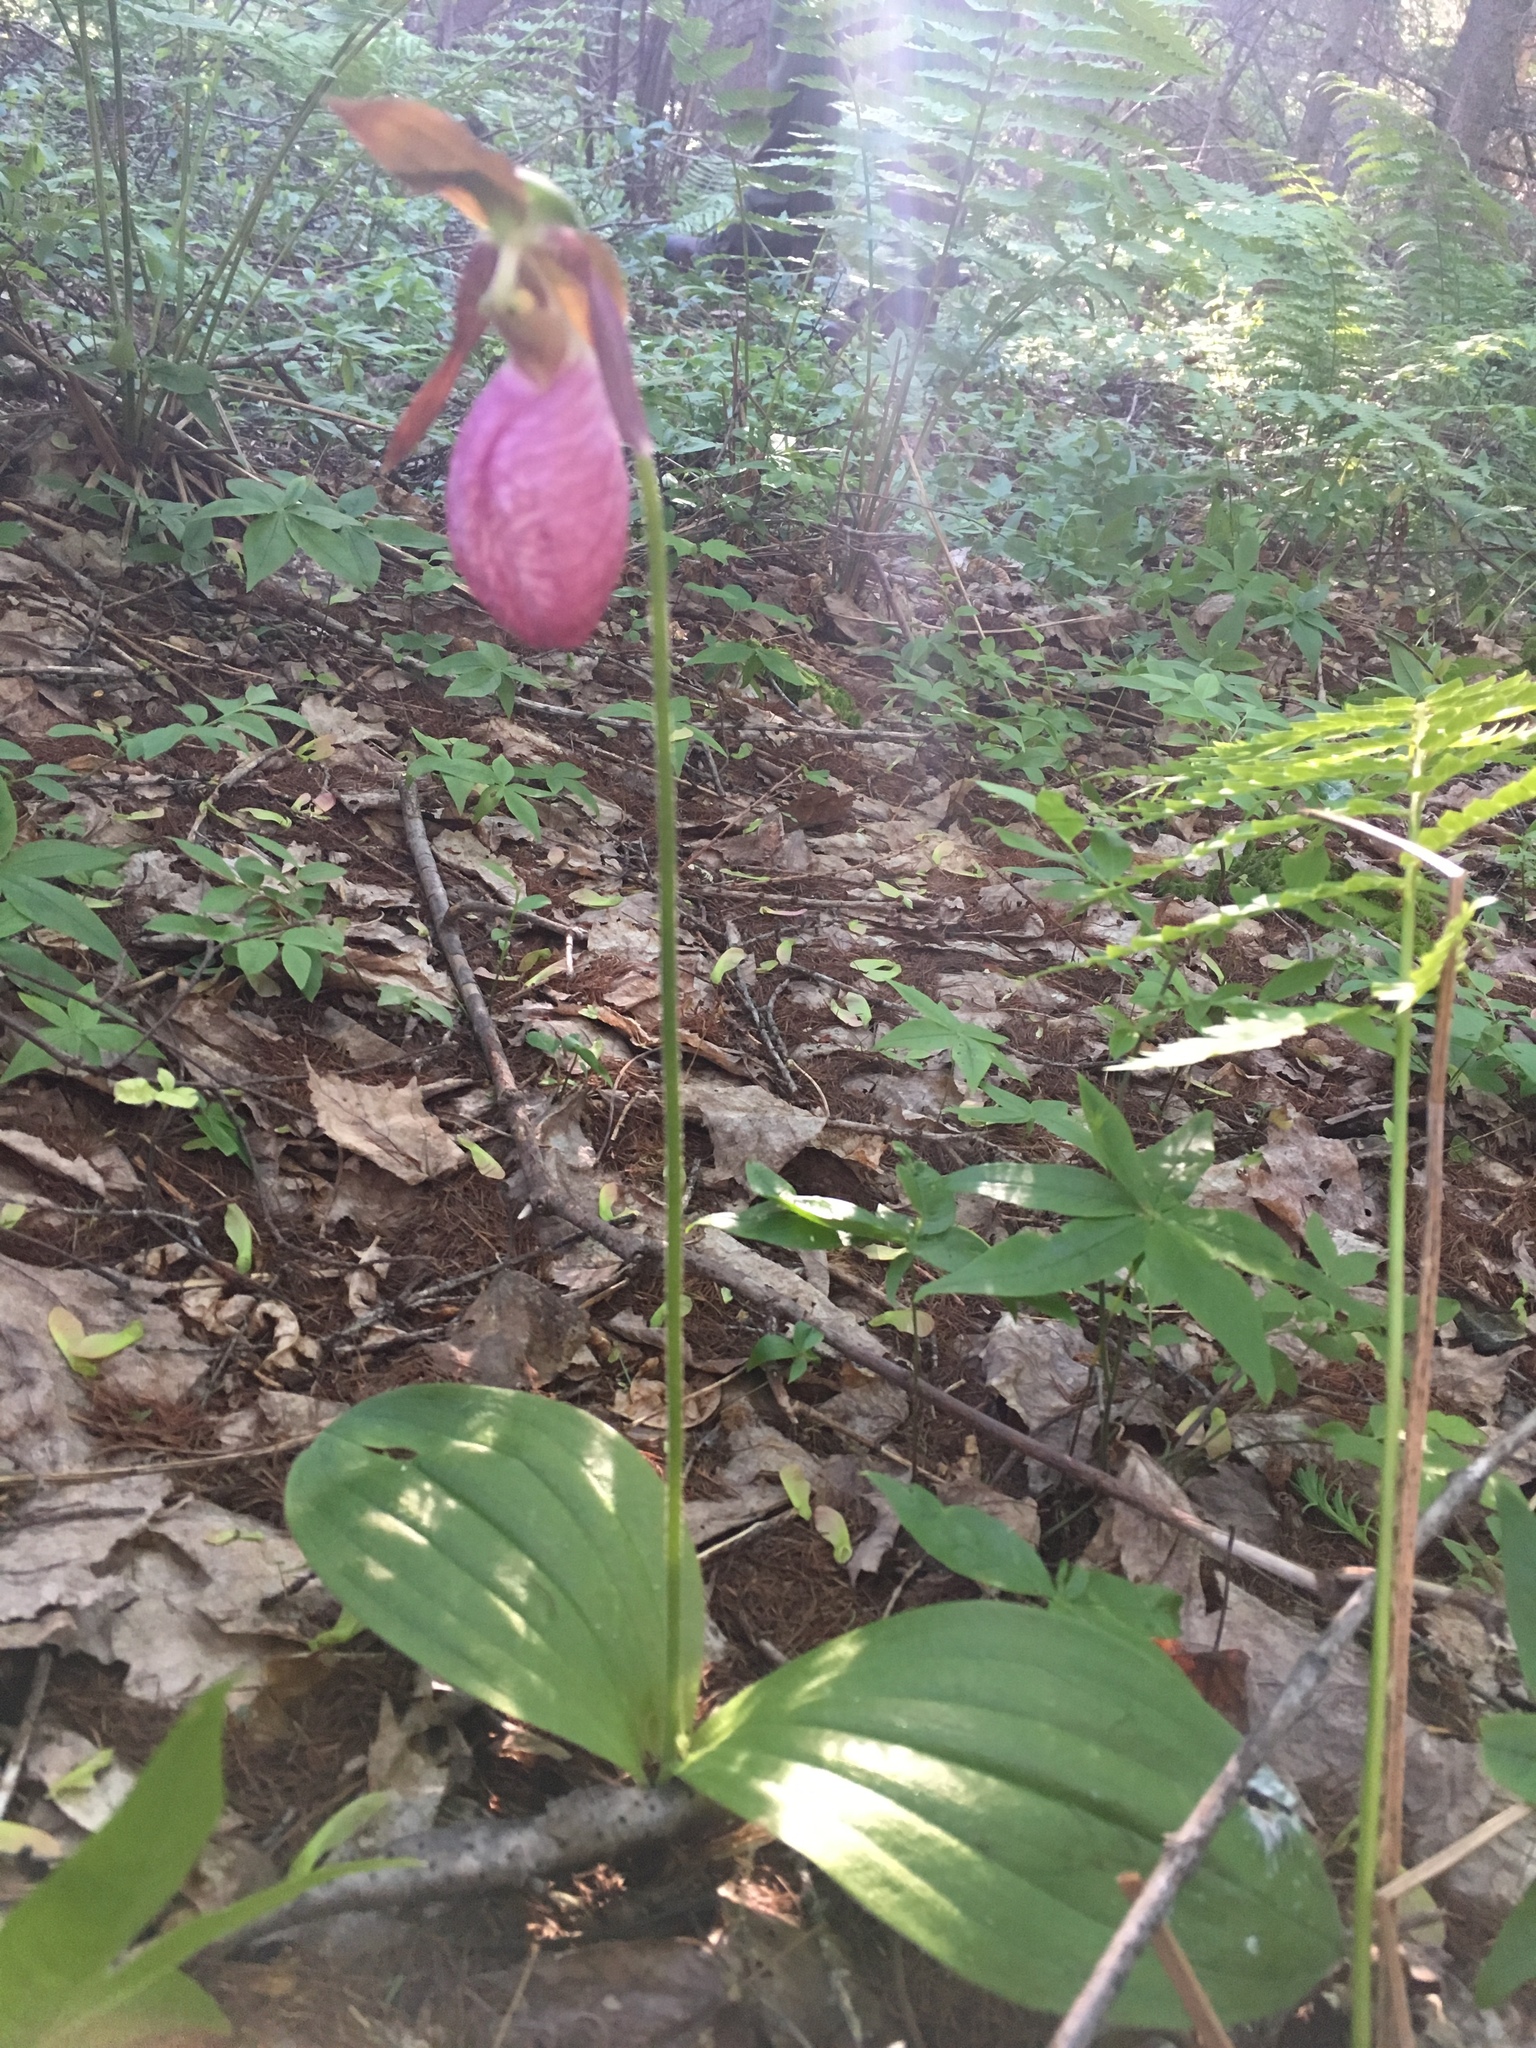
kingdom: Plantae
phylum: Tracheophyta
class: Liliopsida
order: Asparagales
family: Orchidaceae
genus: Cypripedium
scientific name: Cypripedium acaule
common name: Pink lady's-slipper
